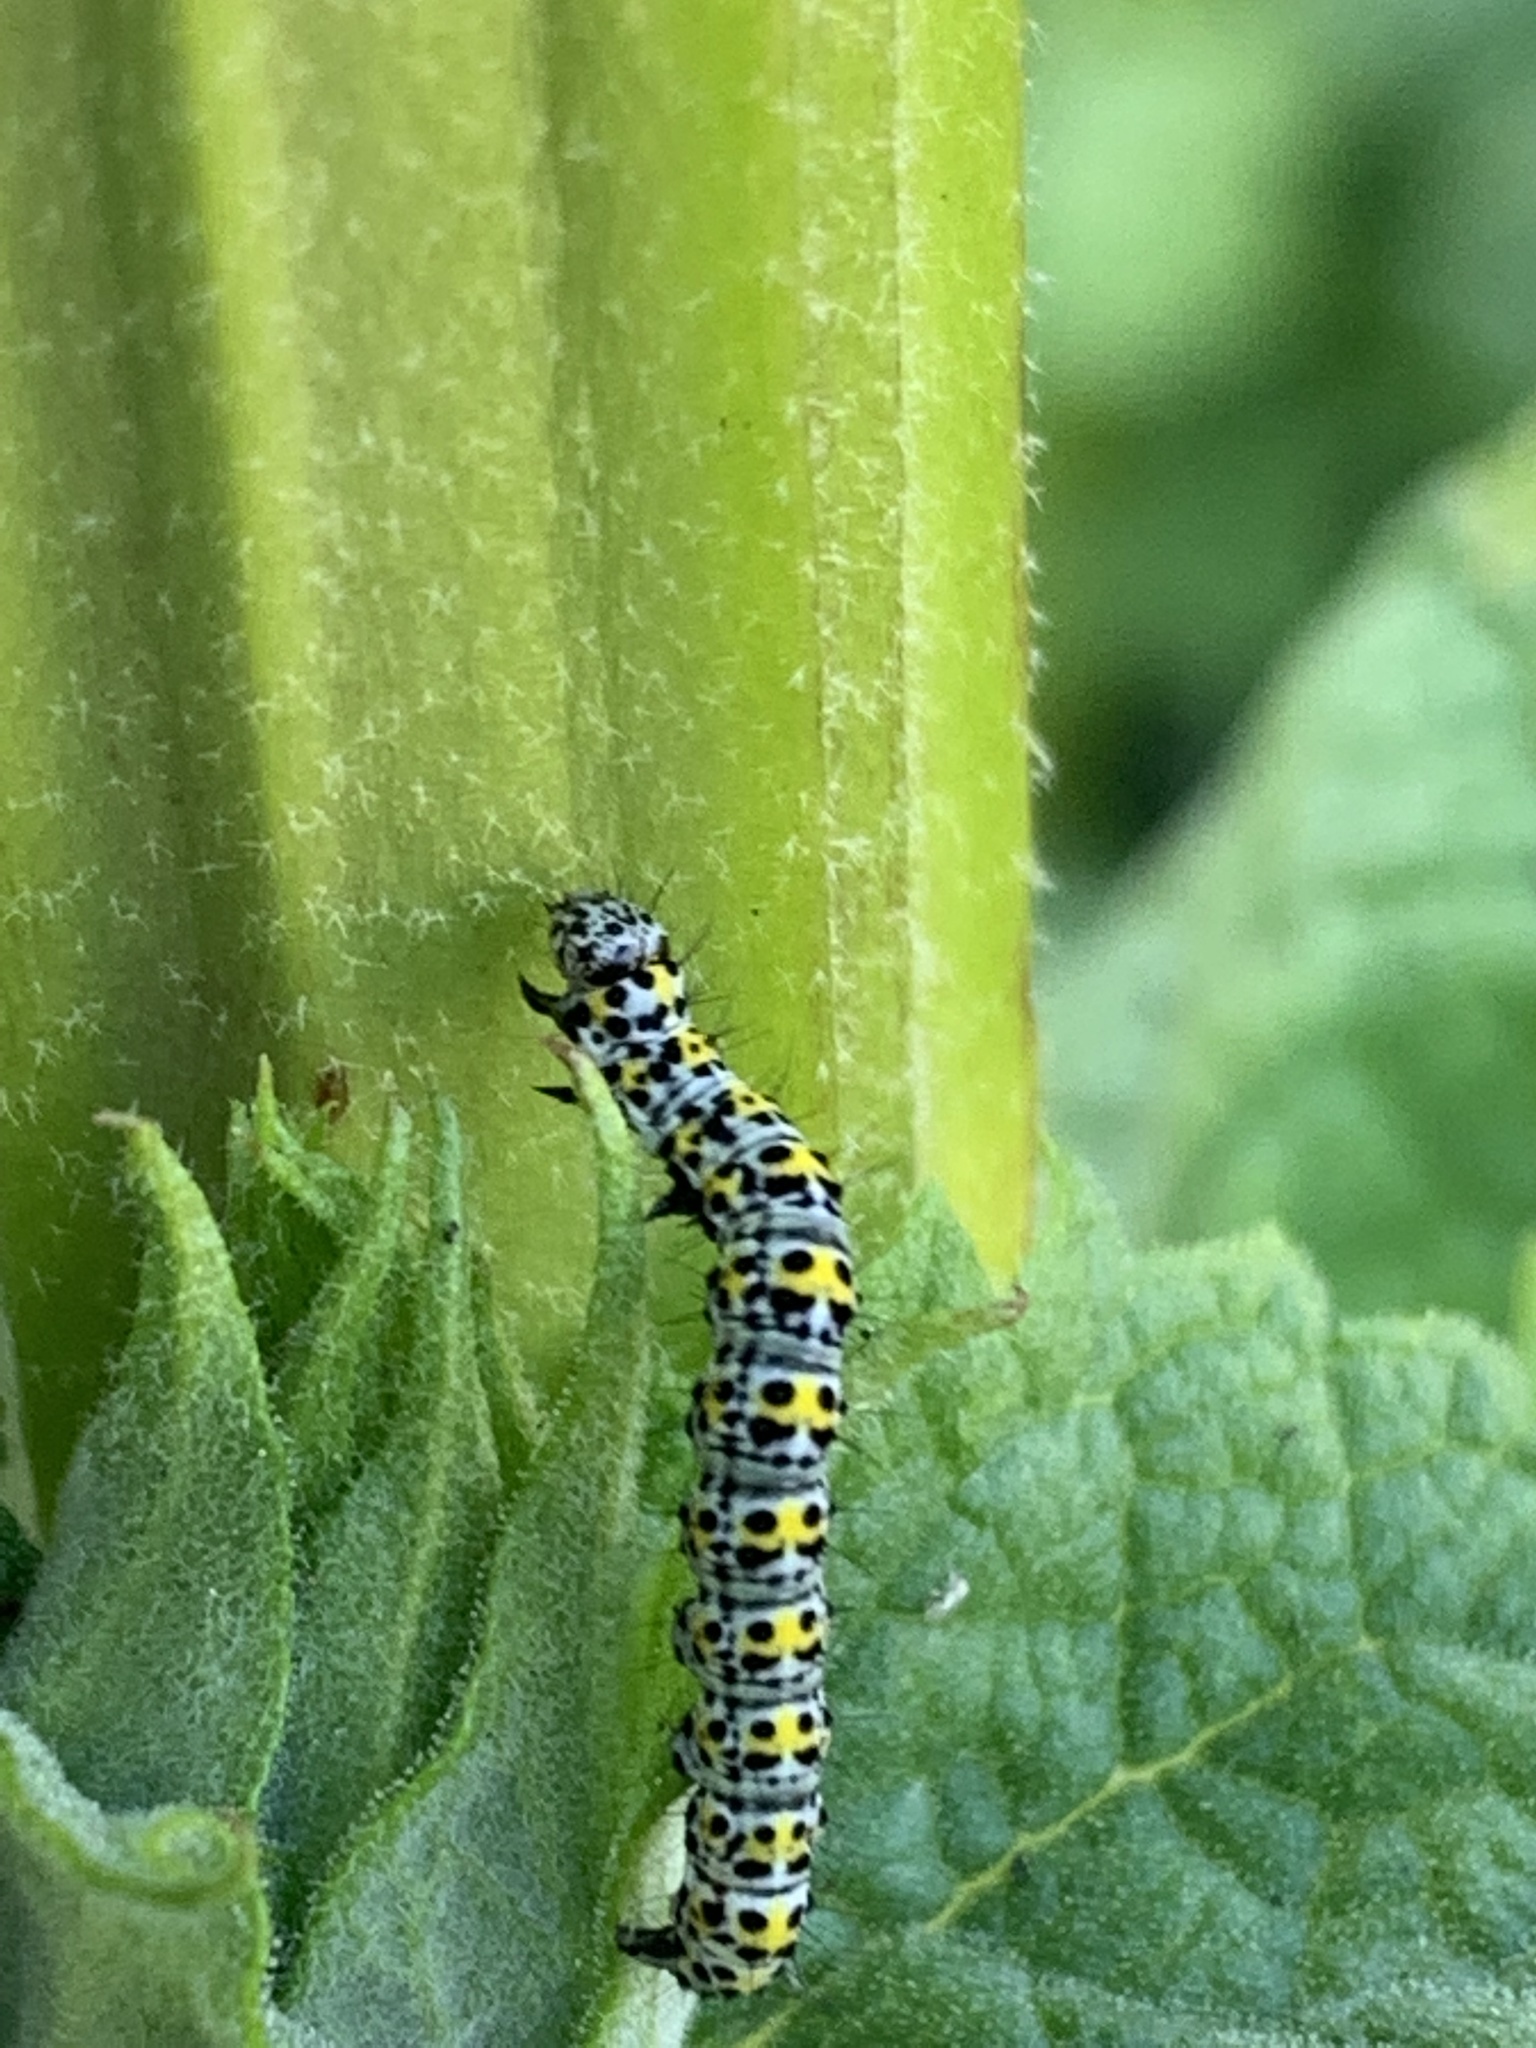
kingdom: Animalia
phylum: Arthropoda
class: Insecta
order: Lepidoptera
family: Noctuidae
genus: Cucullia
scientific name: Cucullia verbasci
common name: Mullein
